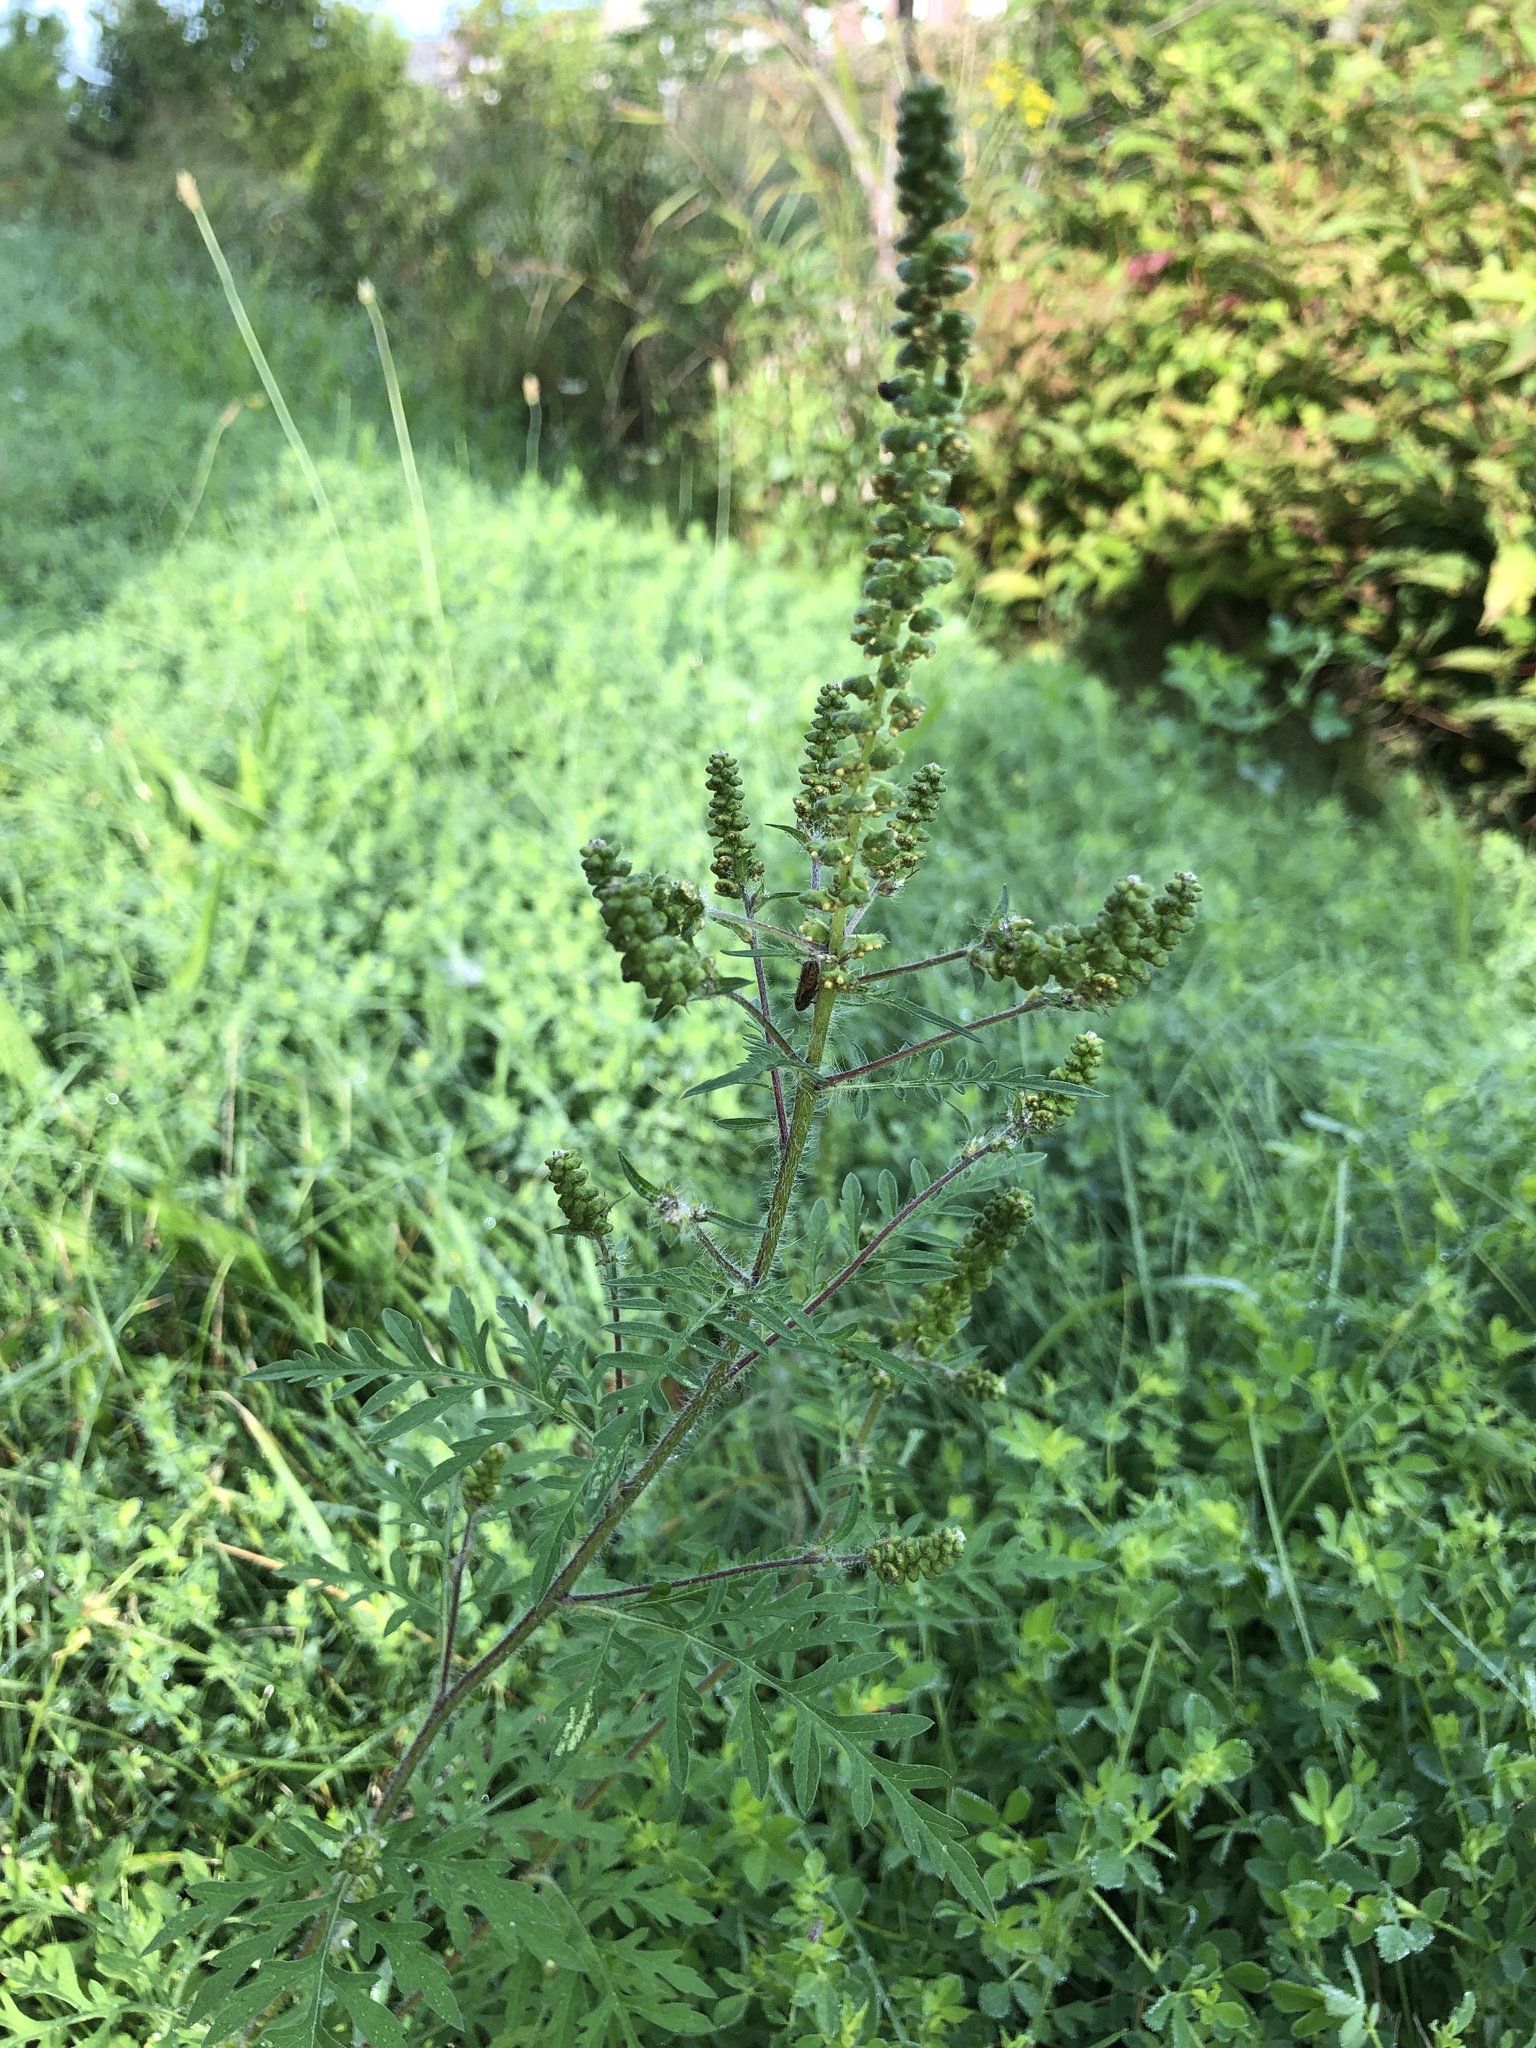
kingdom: Plantae
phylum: Tracheophyta
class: Magnoliopsida
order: Asterales
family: Asteraceae
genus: Ambrosia
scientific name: Ambrosia artemisiifolia
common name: Annual ragweed
